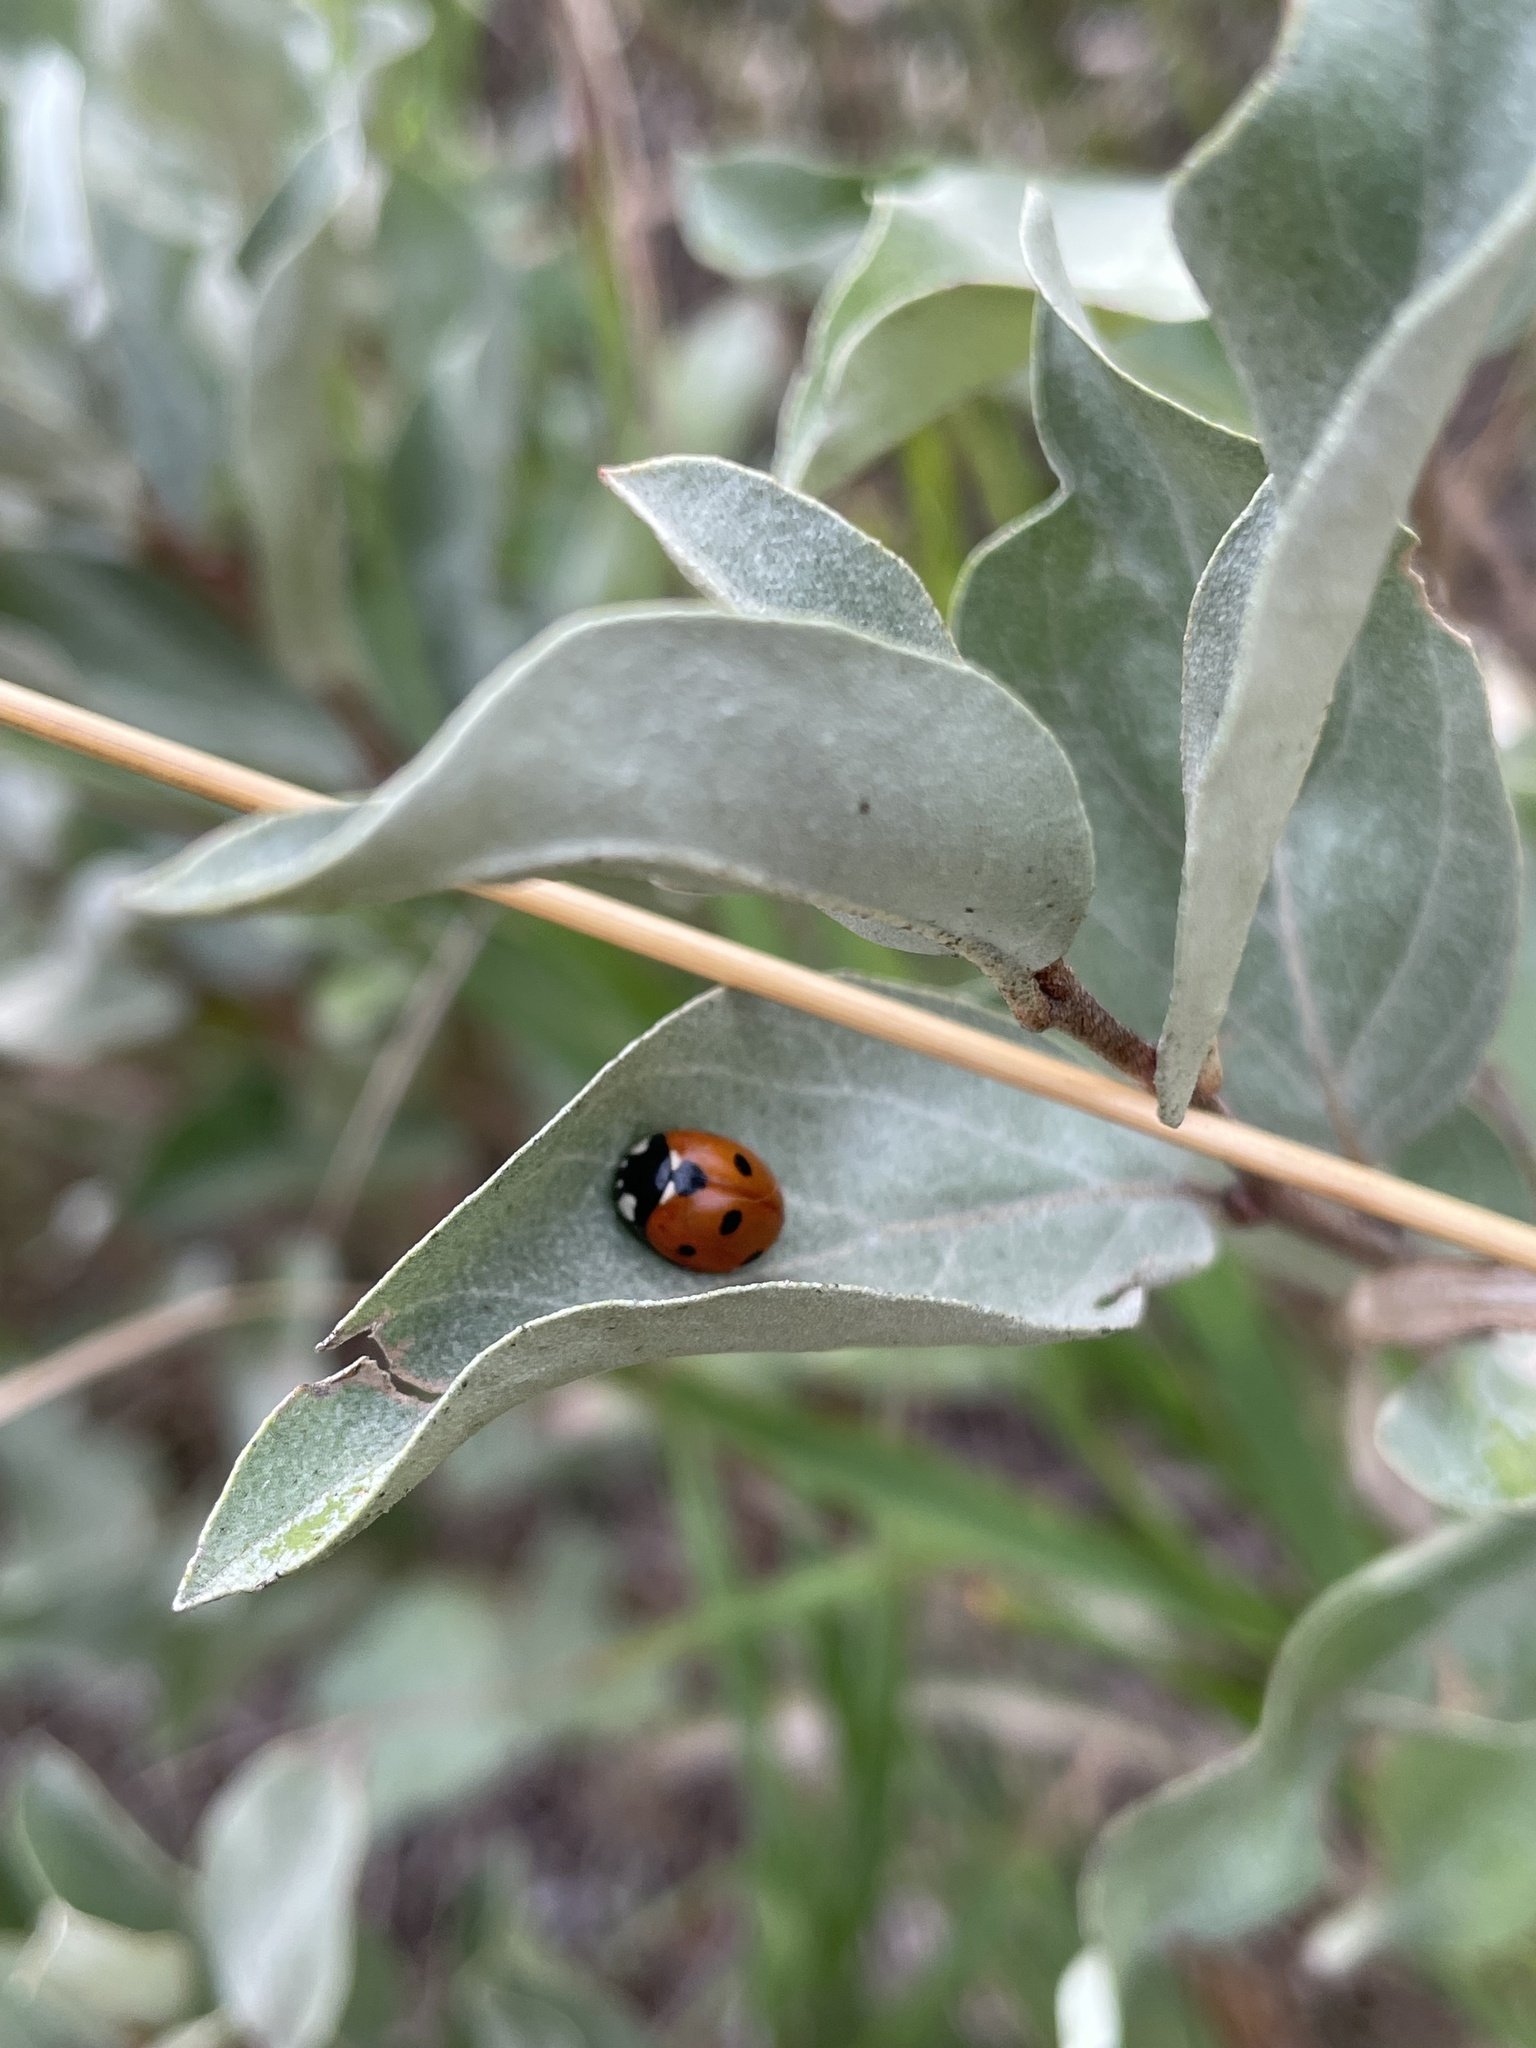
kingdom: Animalia
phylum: Arthropoda
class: Insecta
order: Coleoptera
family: Coccinellidae
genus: Coccinella
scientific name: Coccinella septempunctata
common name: Sevenspotted lady beetle
